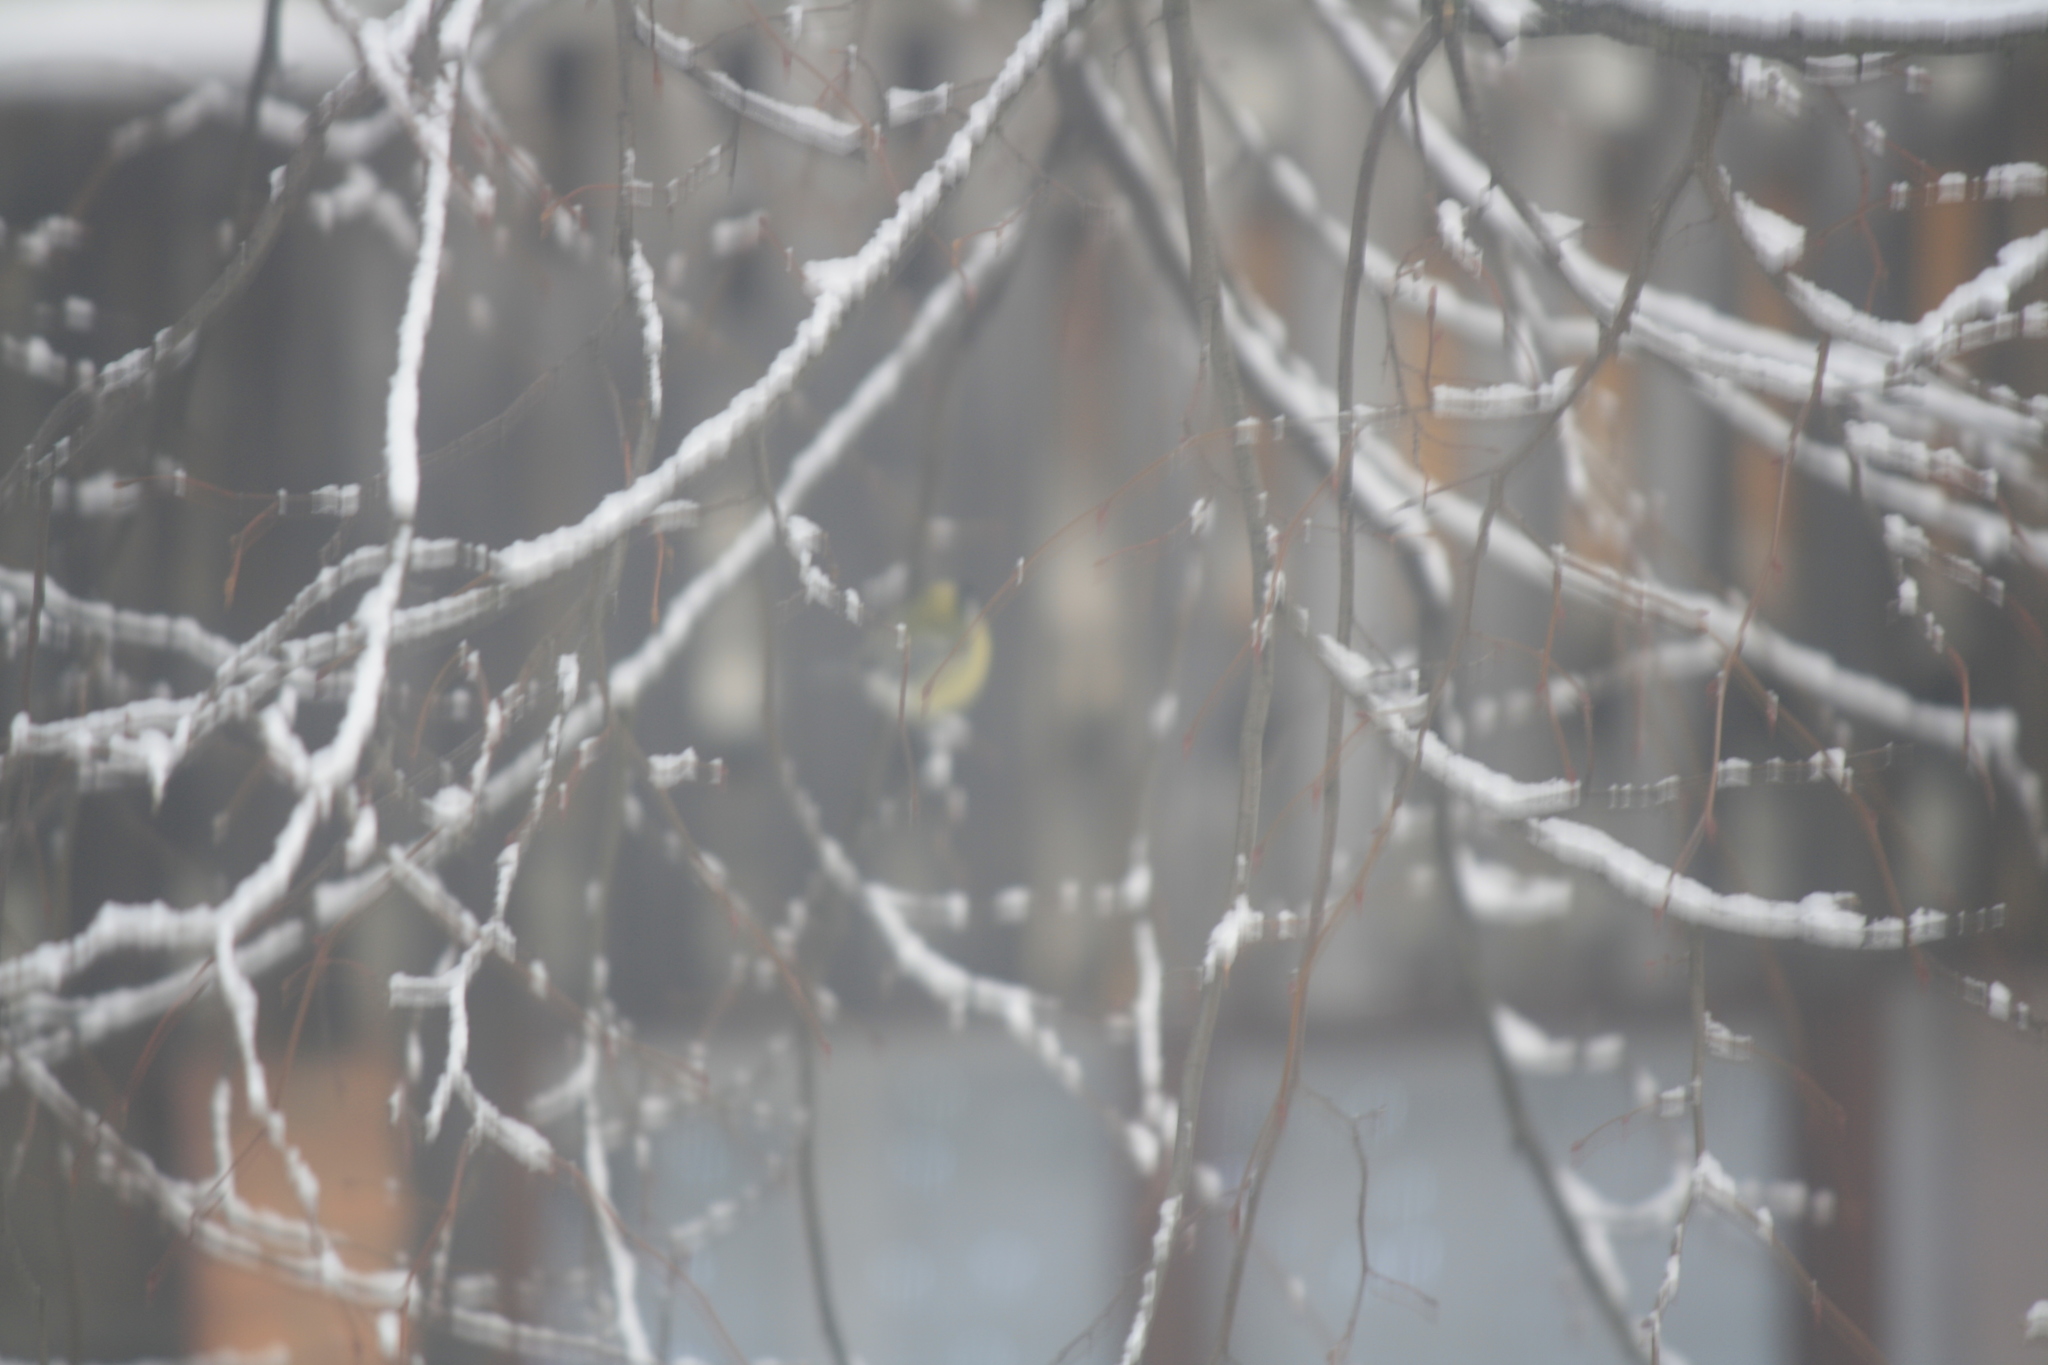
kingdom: Animalia
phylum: Chordata
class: Aves
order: Passeriformes
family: Paridae
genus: Parus
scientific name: Parus major
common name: Great tit
